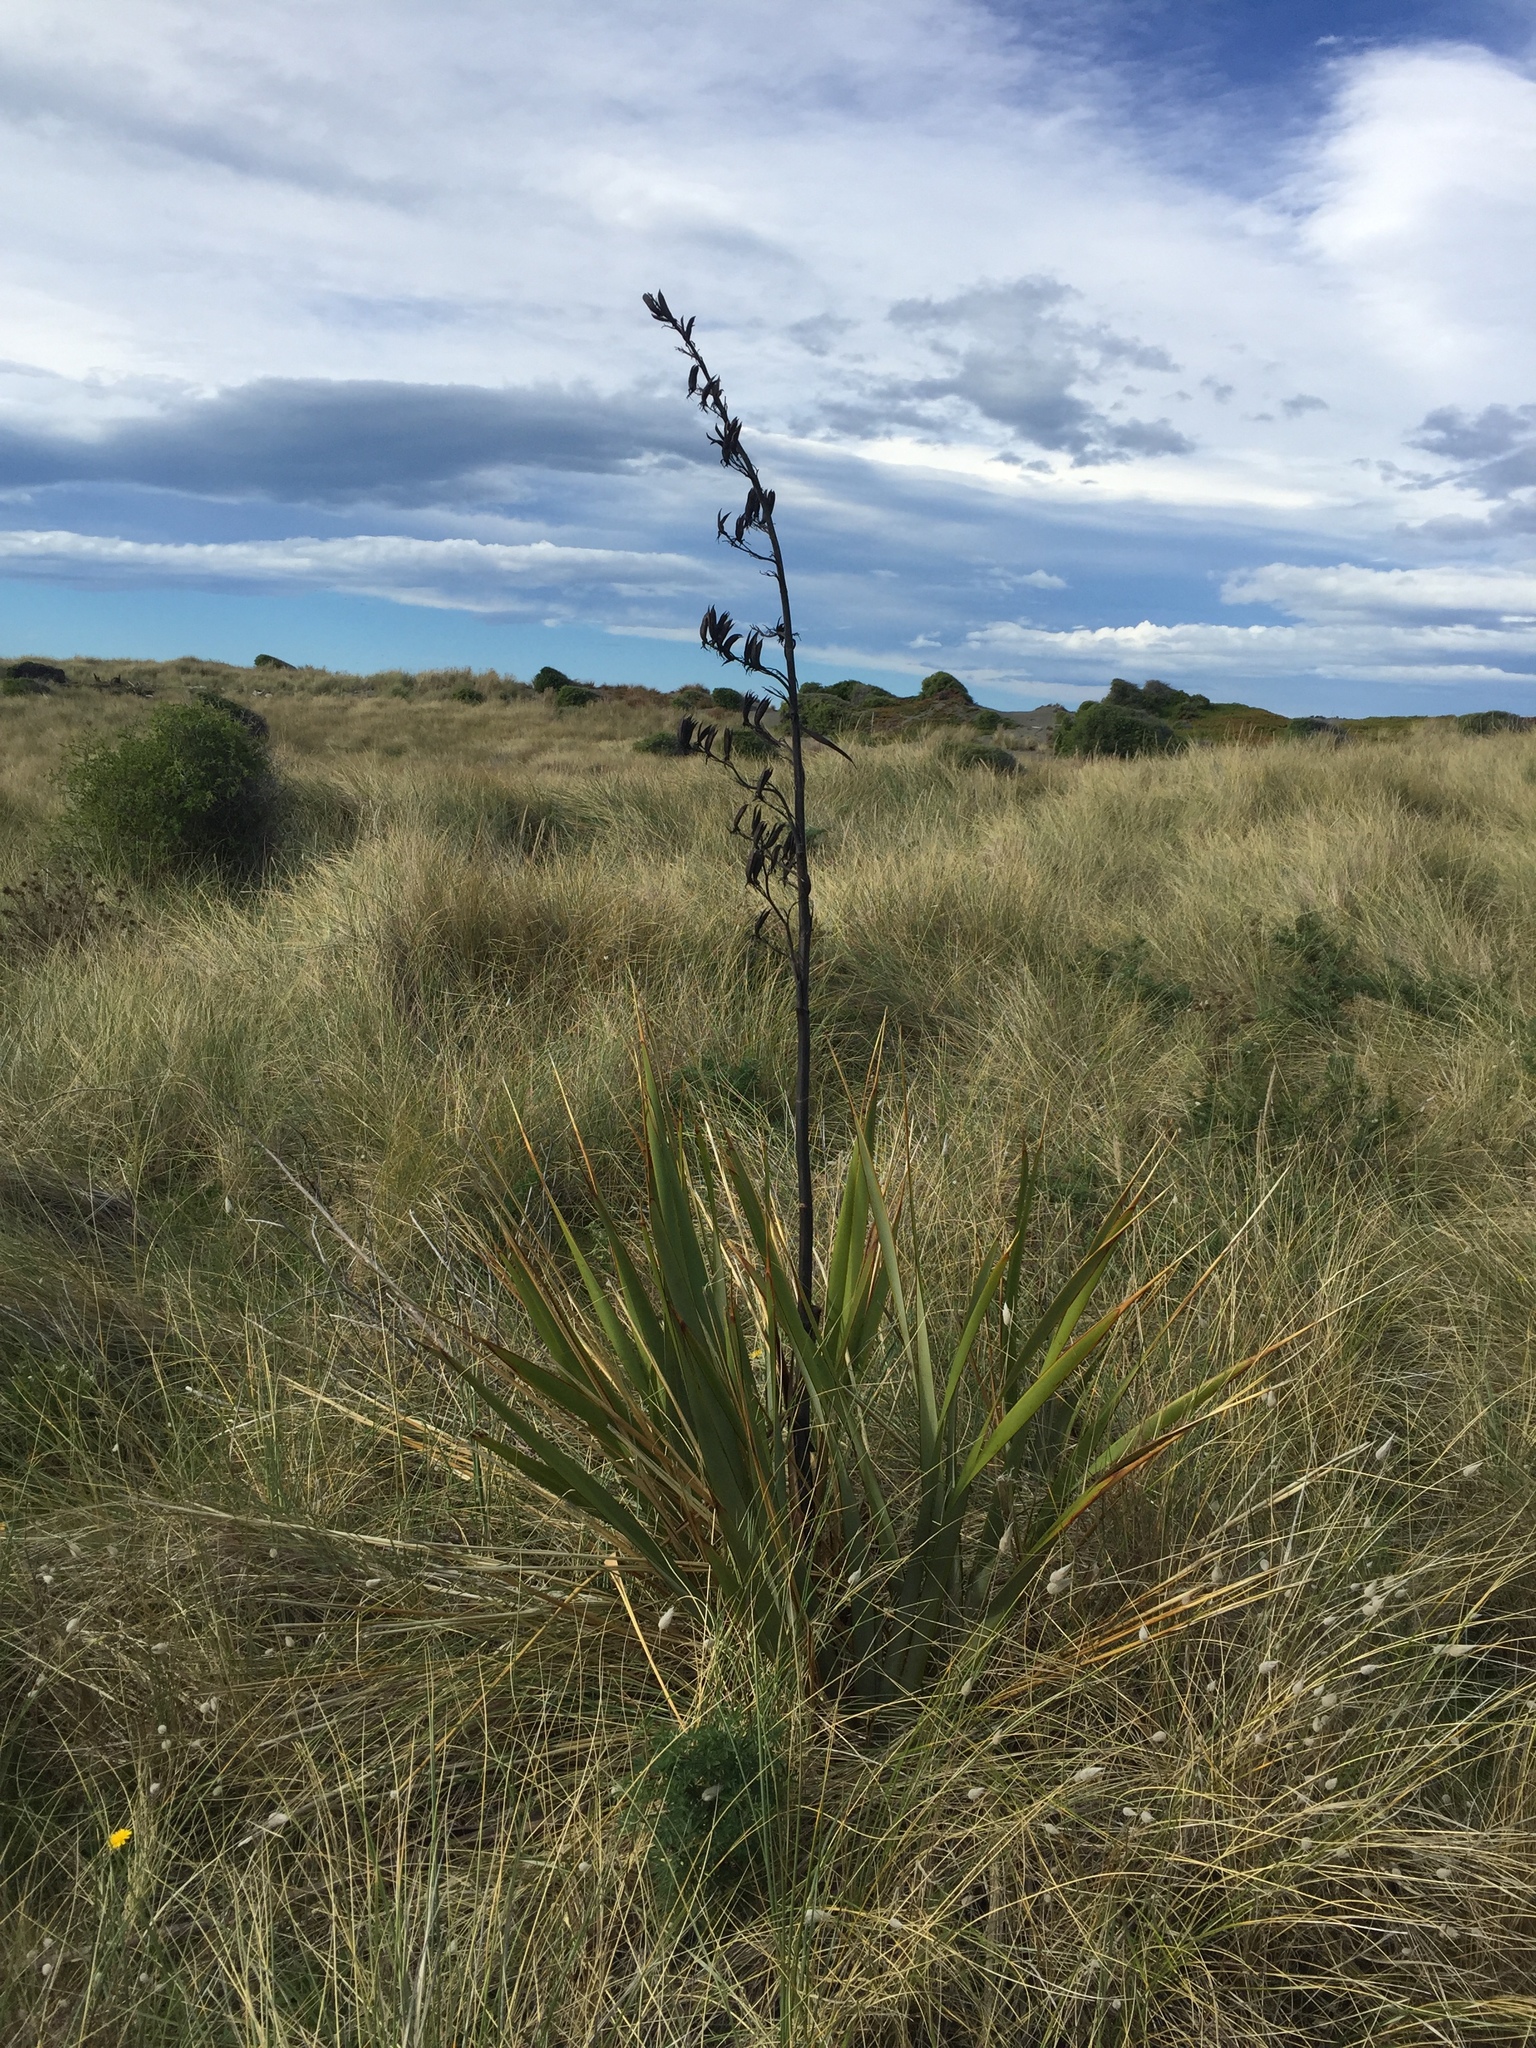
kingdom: Plantae
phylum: Tracheophyta
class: Liliopsida
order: Asparagales
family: Asphodelaceae
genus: Phormium
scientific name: Phormium tenax
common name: New zealand flax
